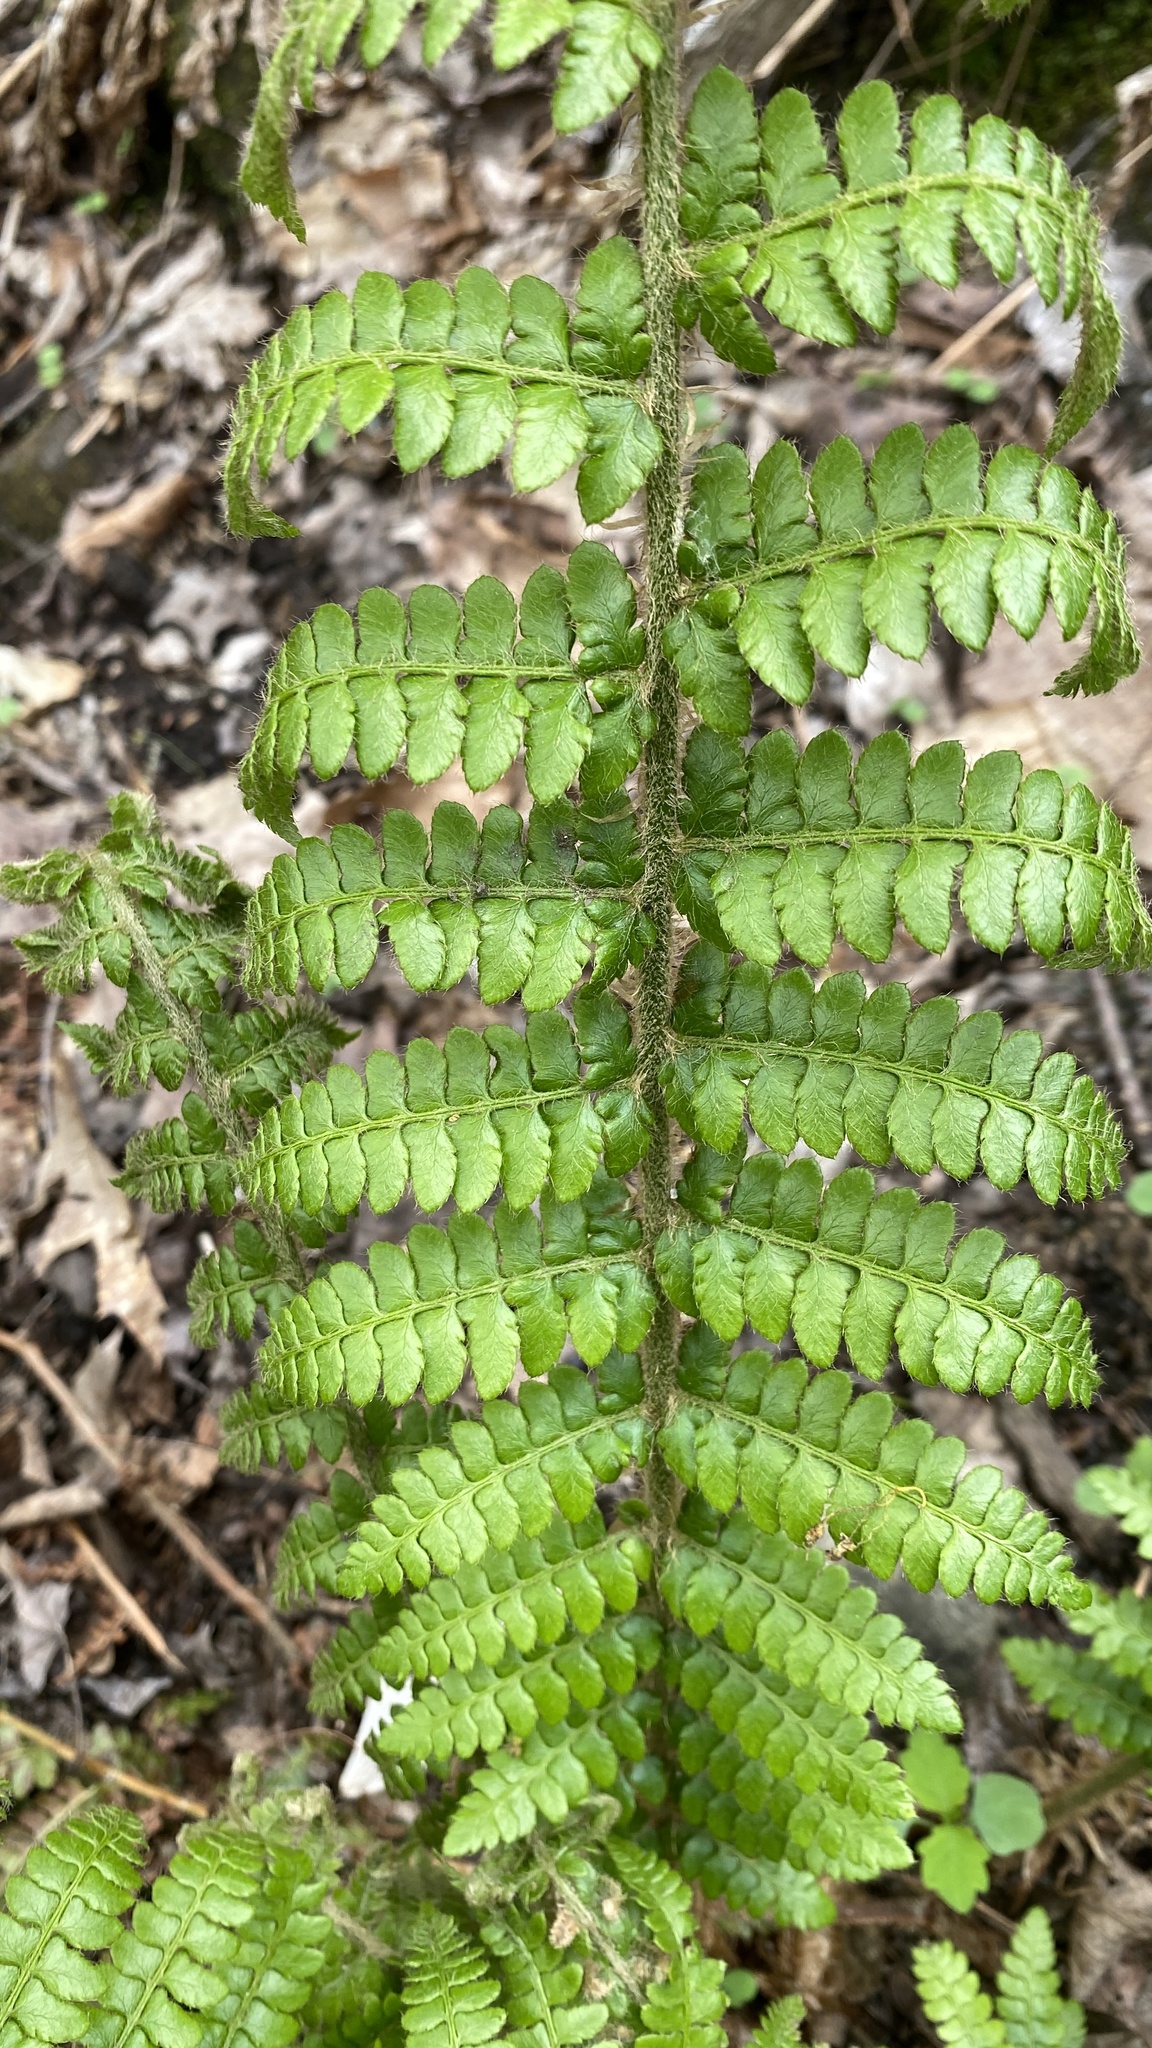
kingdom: Plantae
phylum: Tracheophyta
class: Polypodiopsida
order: Polypodiales
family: Dryopteridaceae
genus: Polystichum
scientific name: Polystichum braunii
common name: Braun's holly fern
